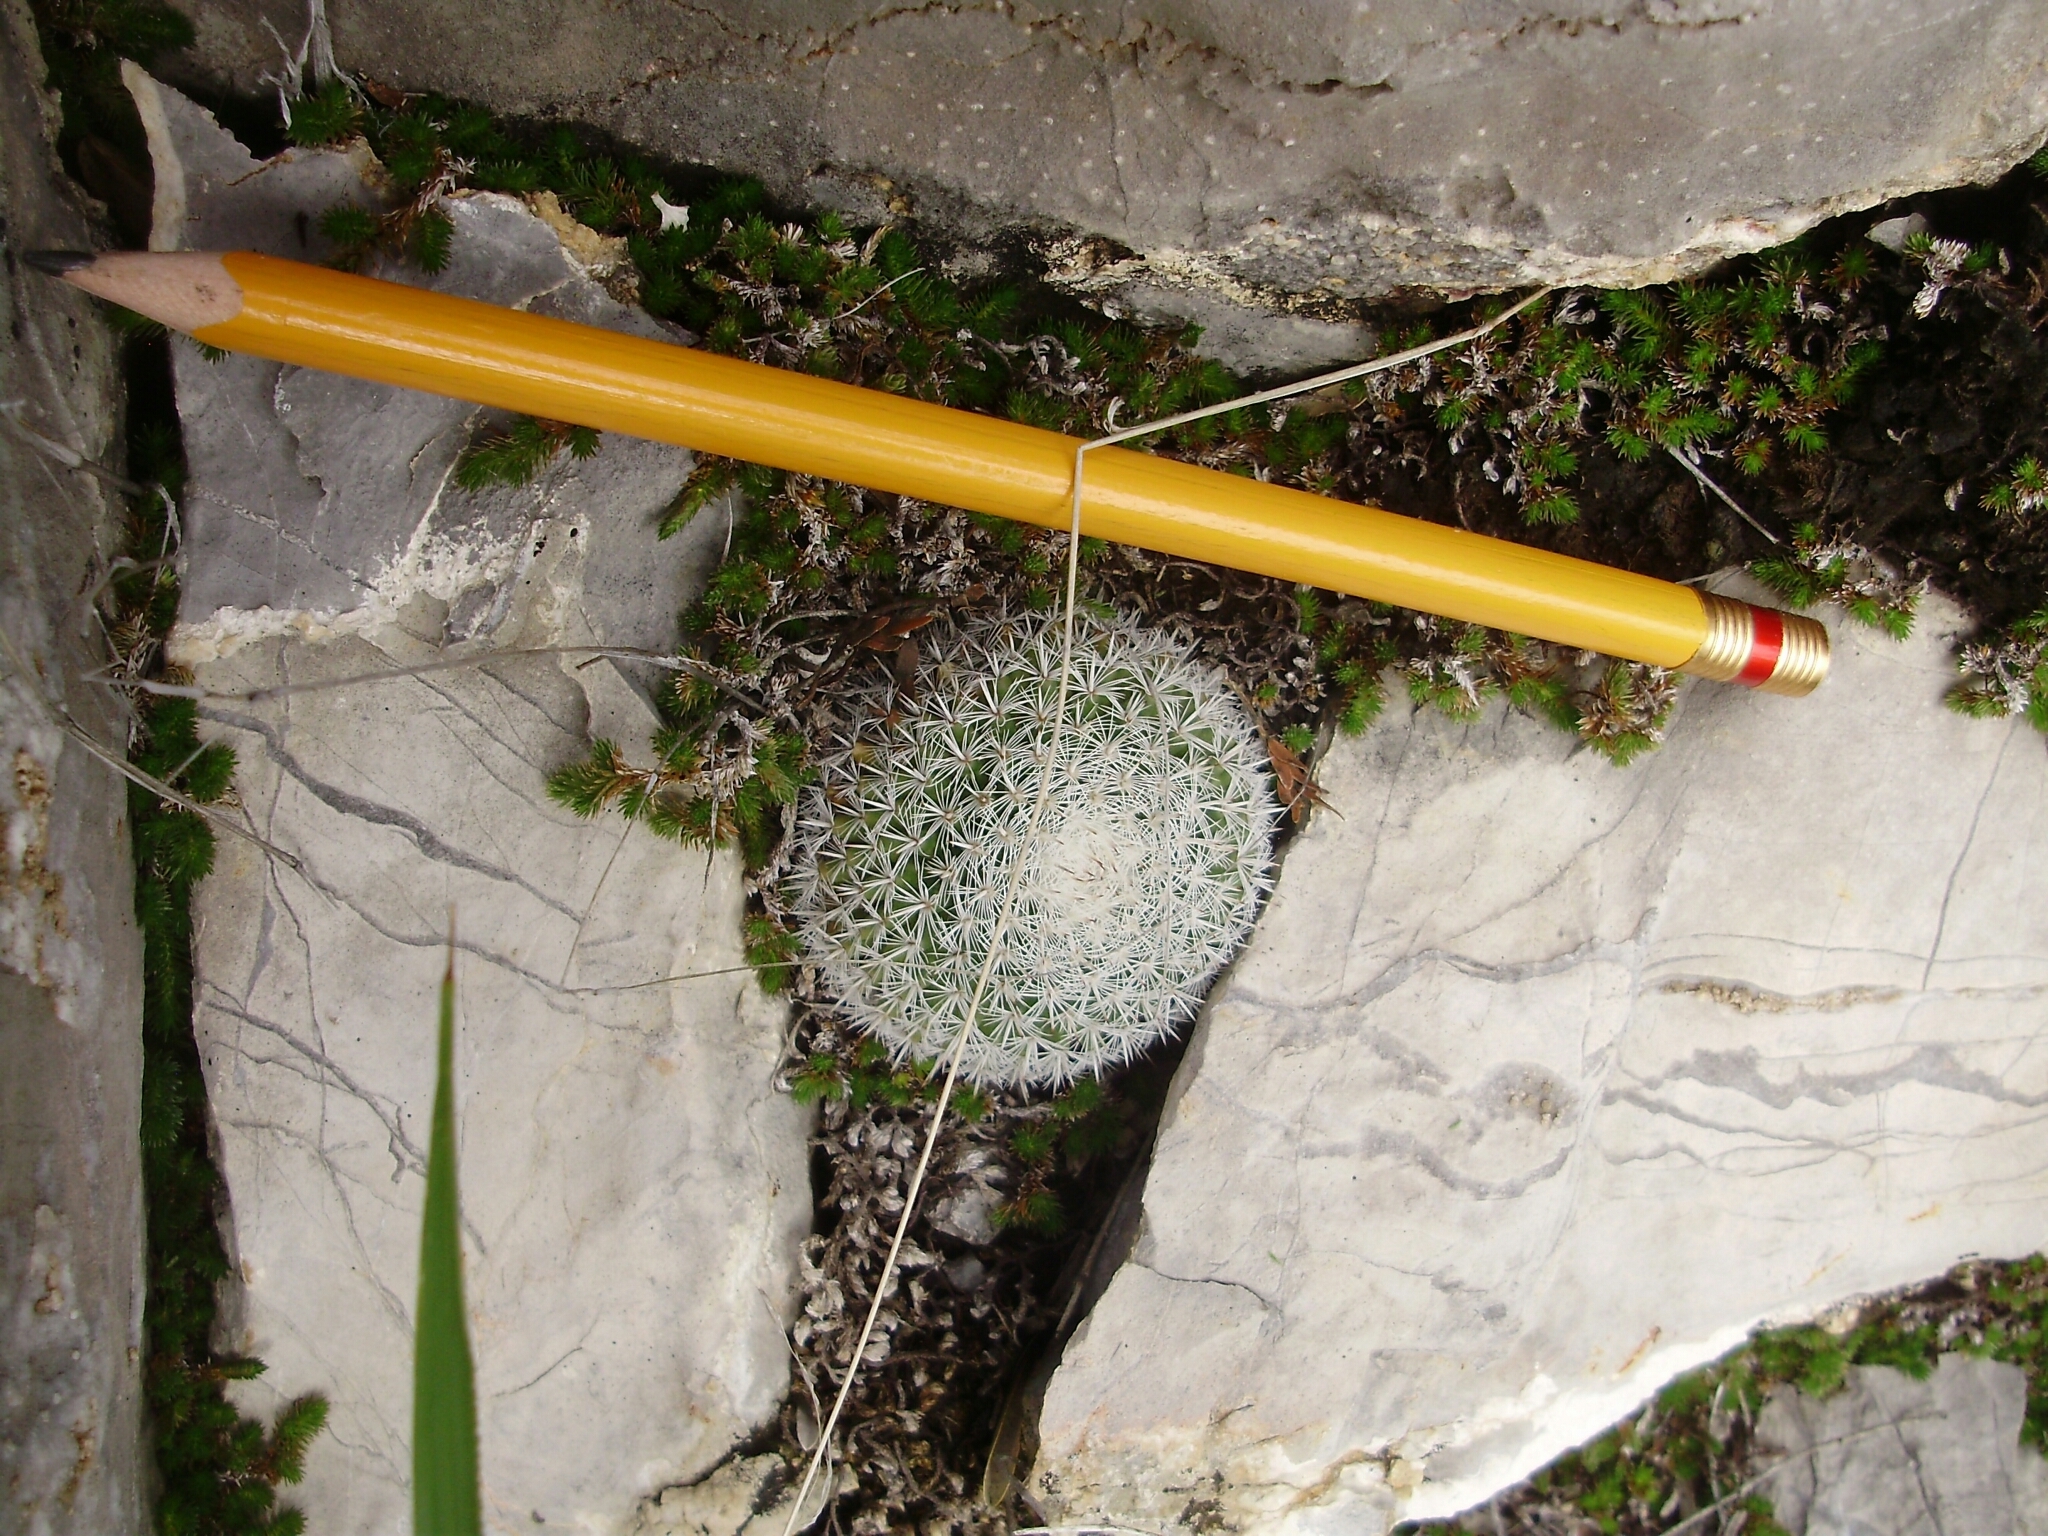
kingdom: Plantae
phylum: Tracheophyta
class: Magnoliopsida
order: Caryophyllales
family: Cactaceae
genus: Mammillaria
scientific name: Mammillaria perbella
